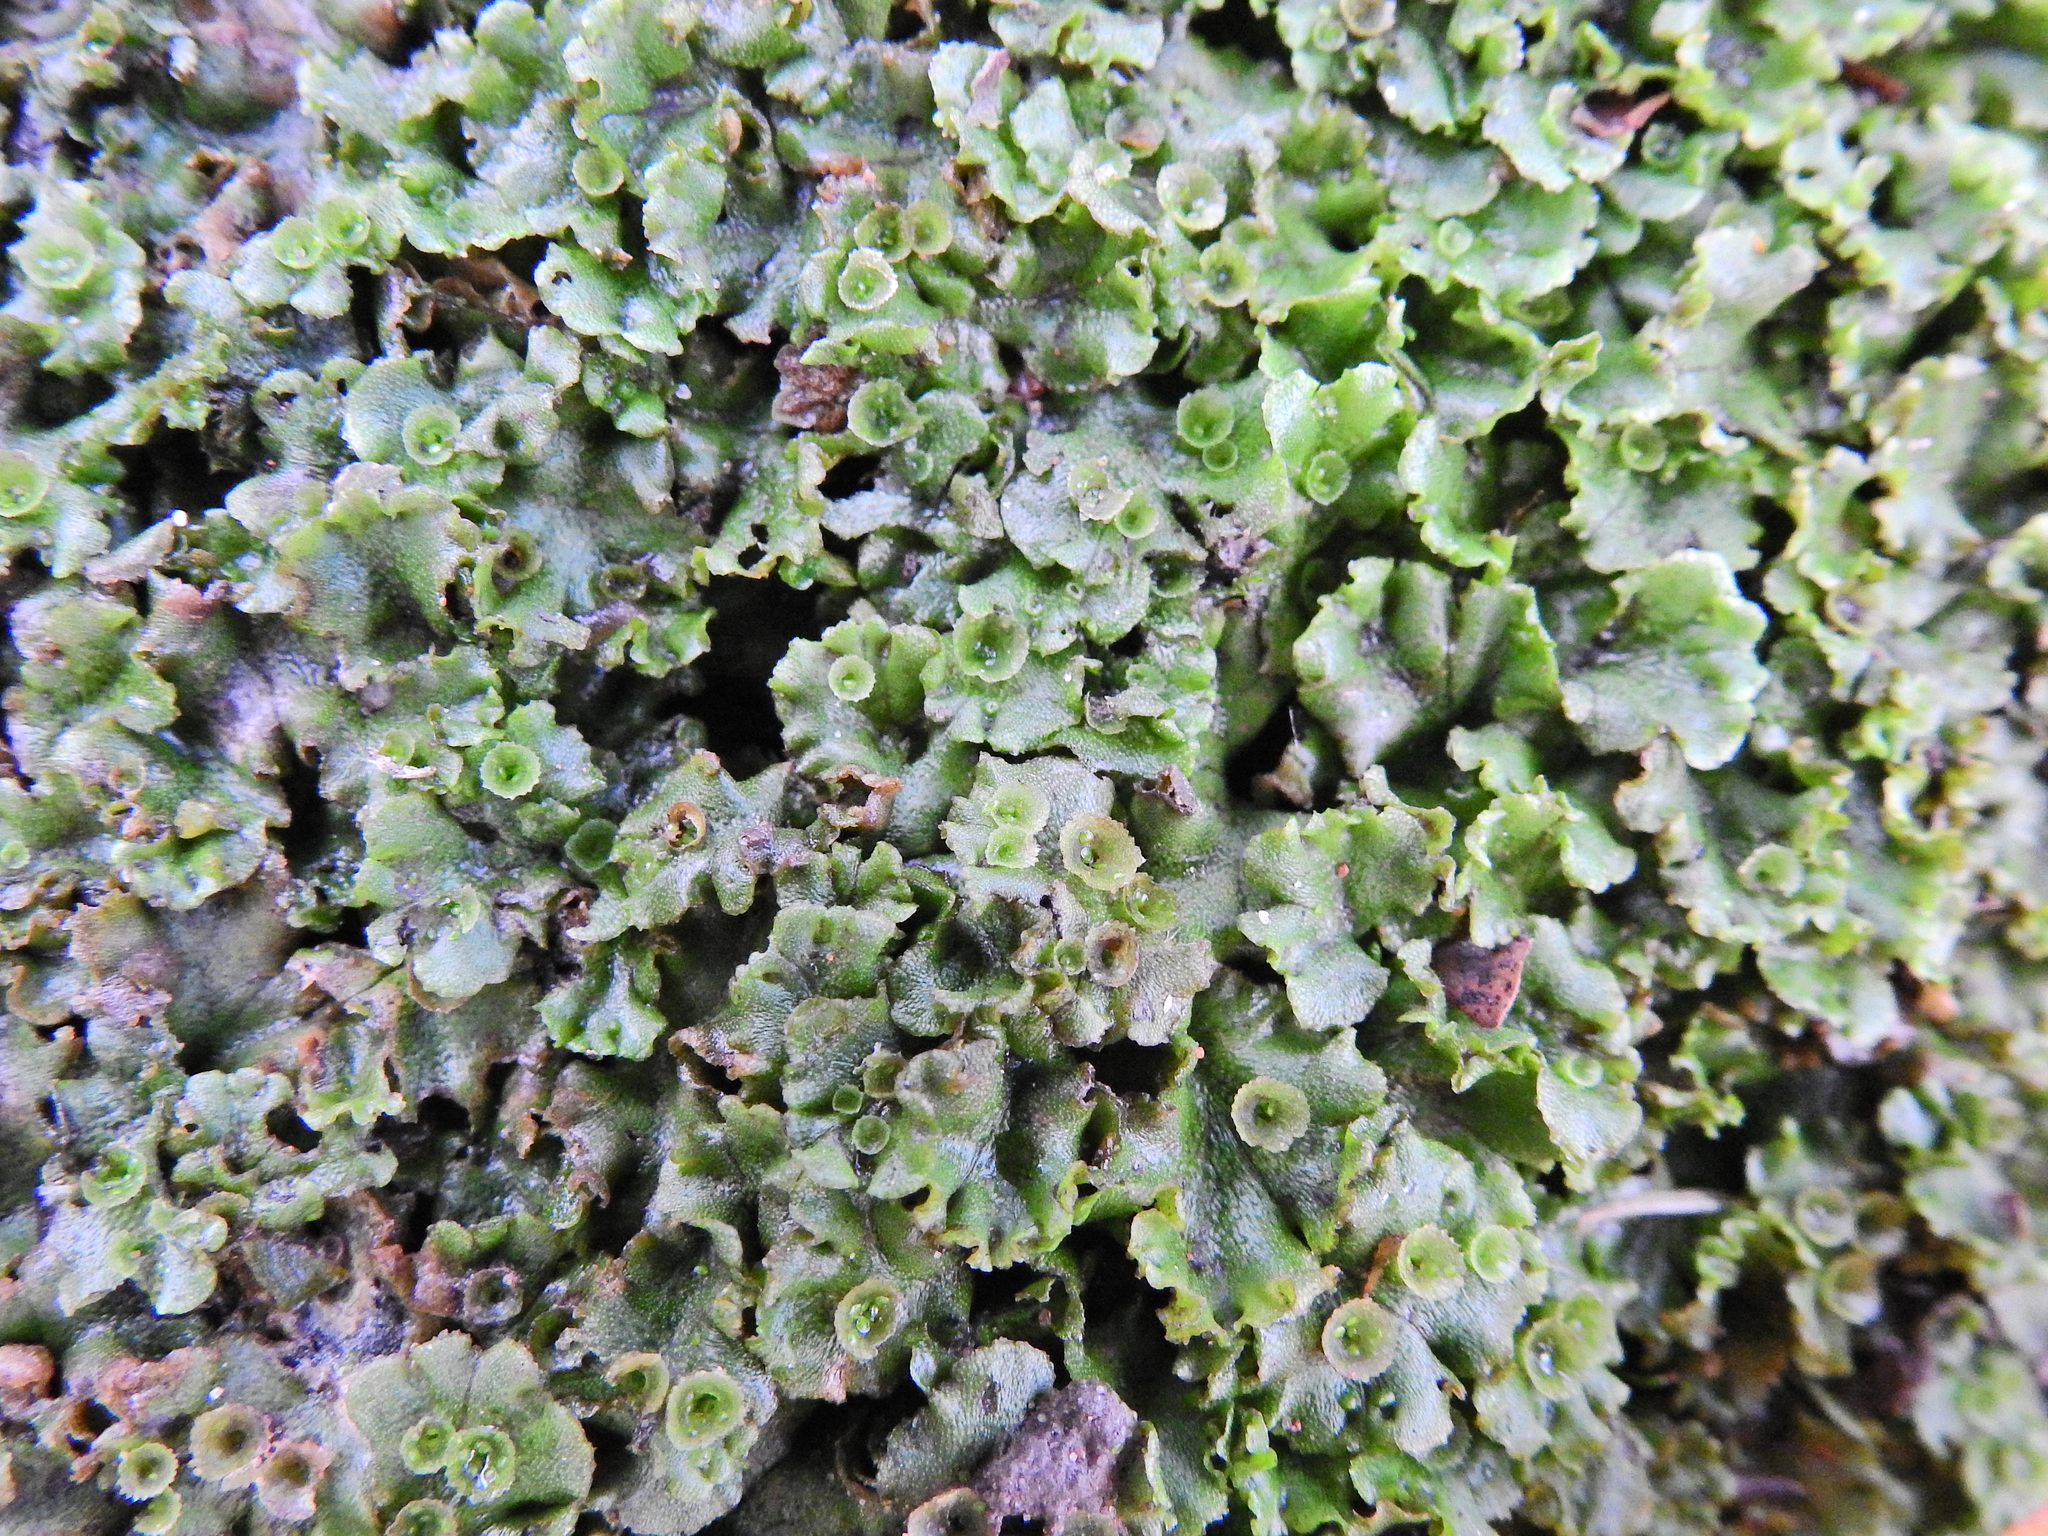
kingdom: Plantae
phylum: Marchantiophyta
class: Marchantiopsida
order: Marchantiales
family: Marchantiaceae
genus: Marchantia
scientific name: Marchantia polymorpha
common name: Common liverwort
